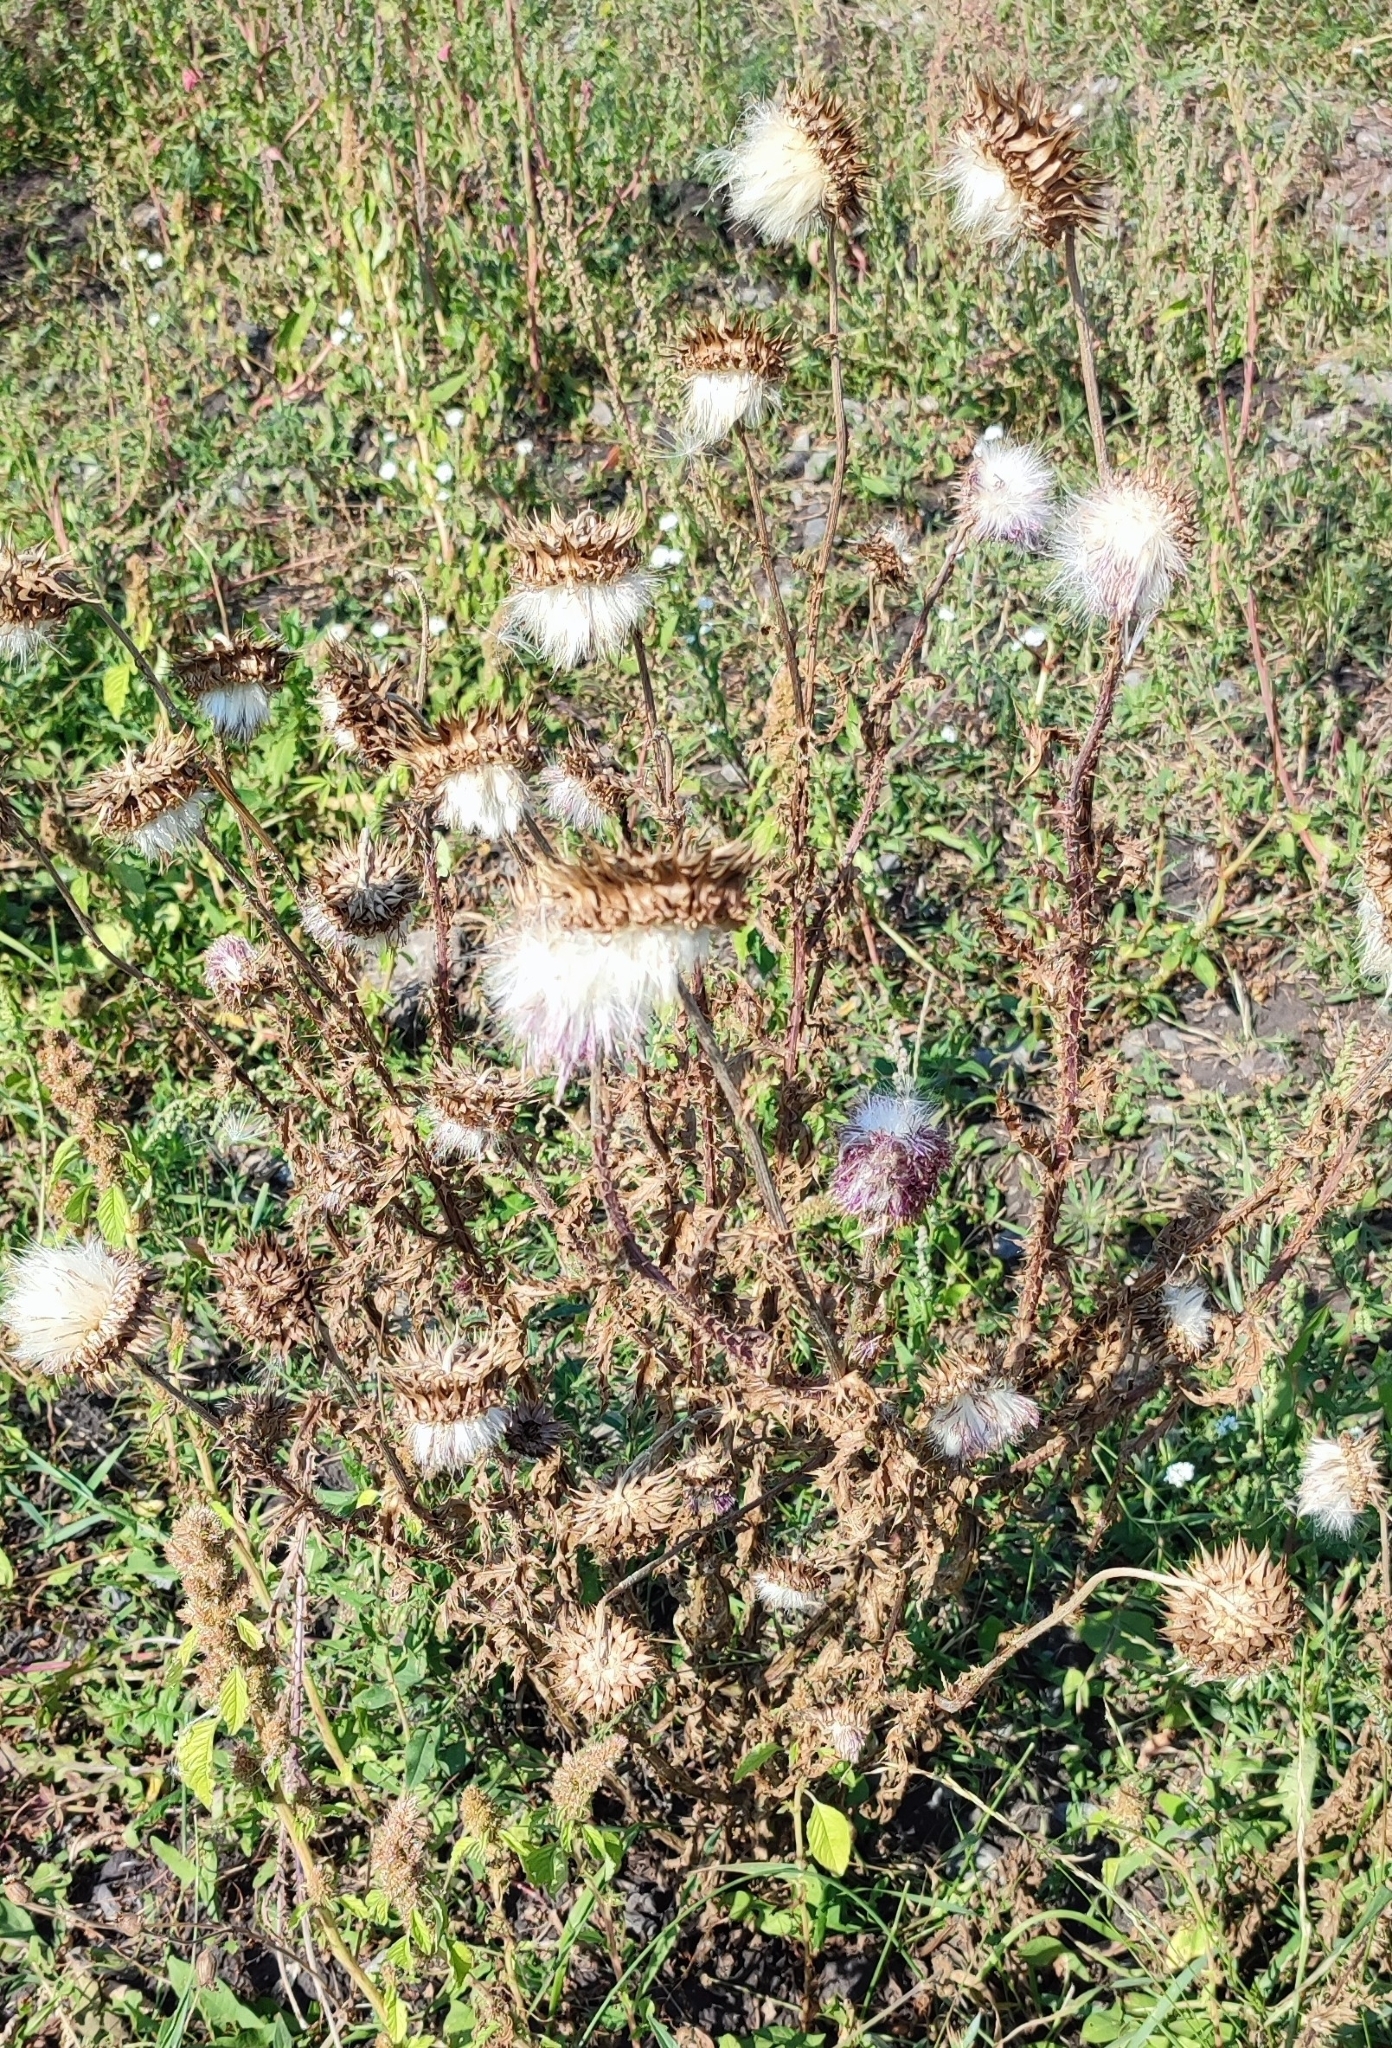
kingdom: Plantae
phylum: Tracheophyta
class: Magnoliopsida
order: Asterales
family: Asteraceae
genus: Carduus
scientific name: Carduus nutans
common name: Musk thistle
